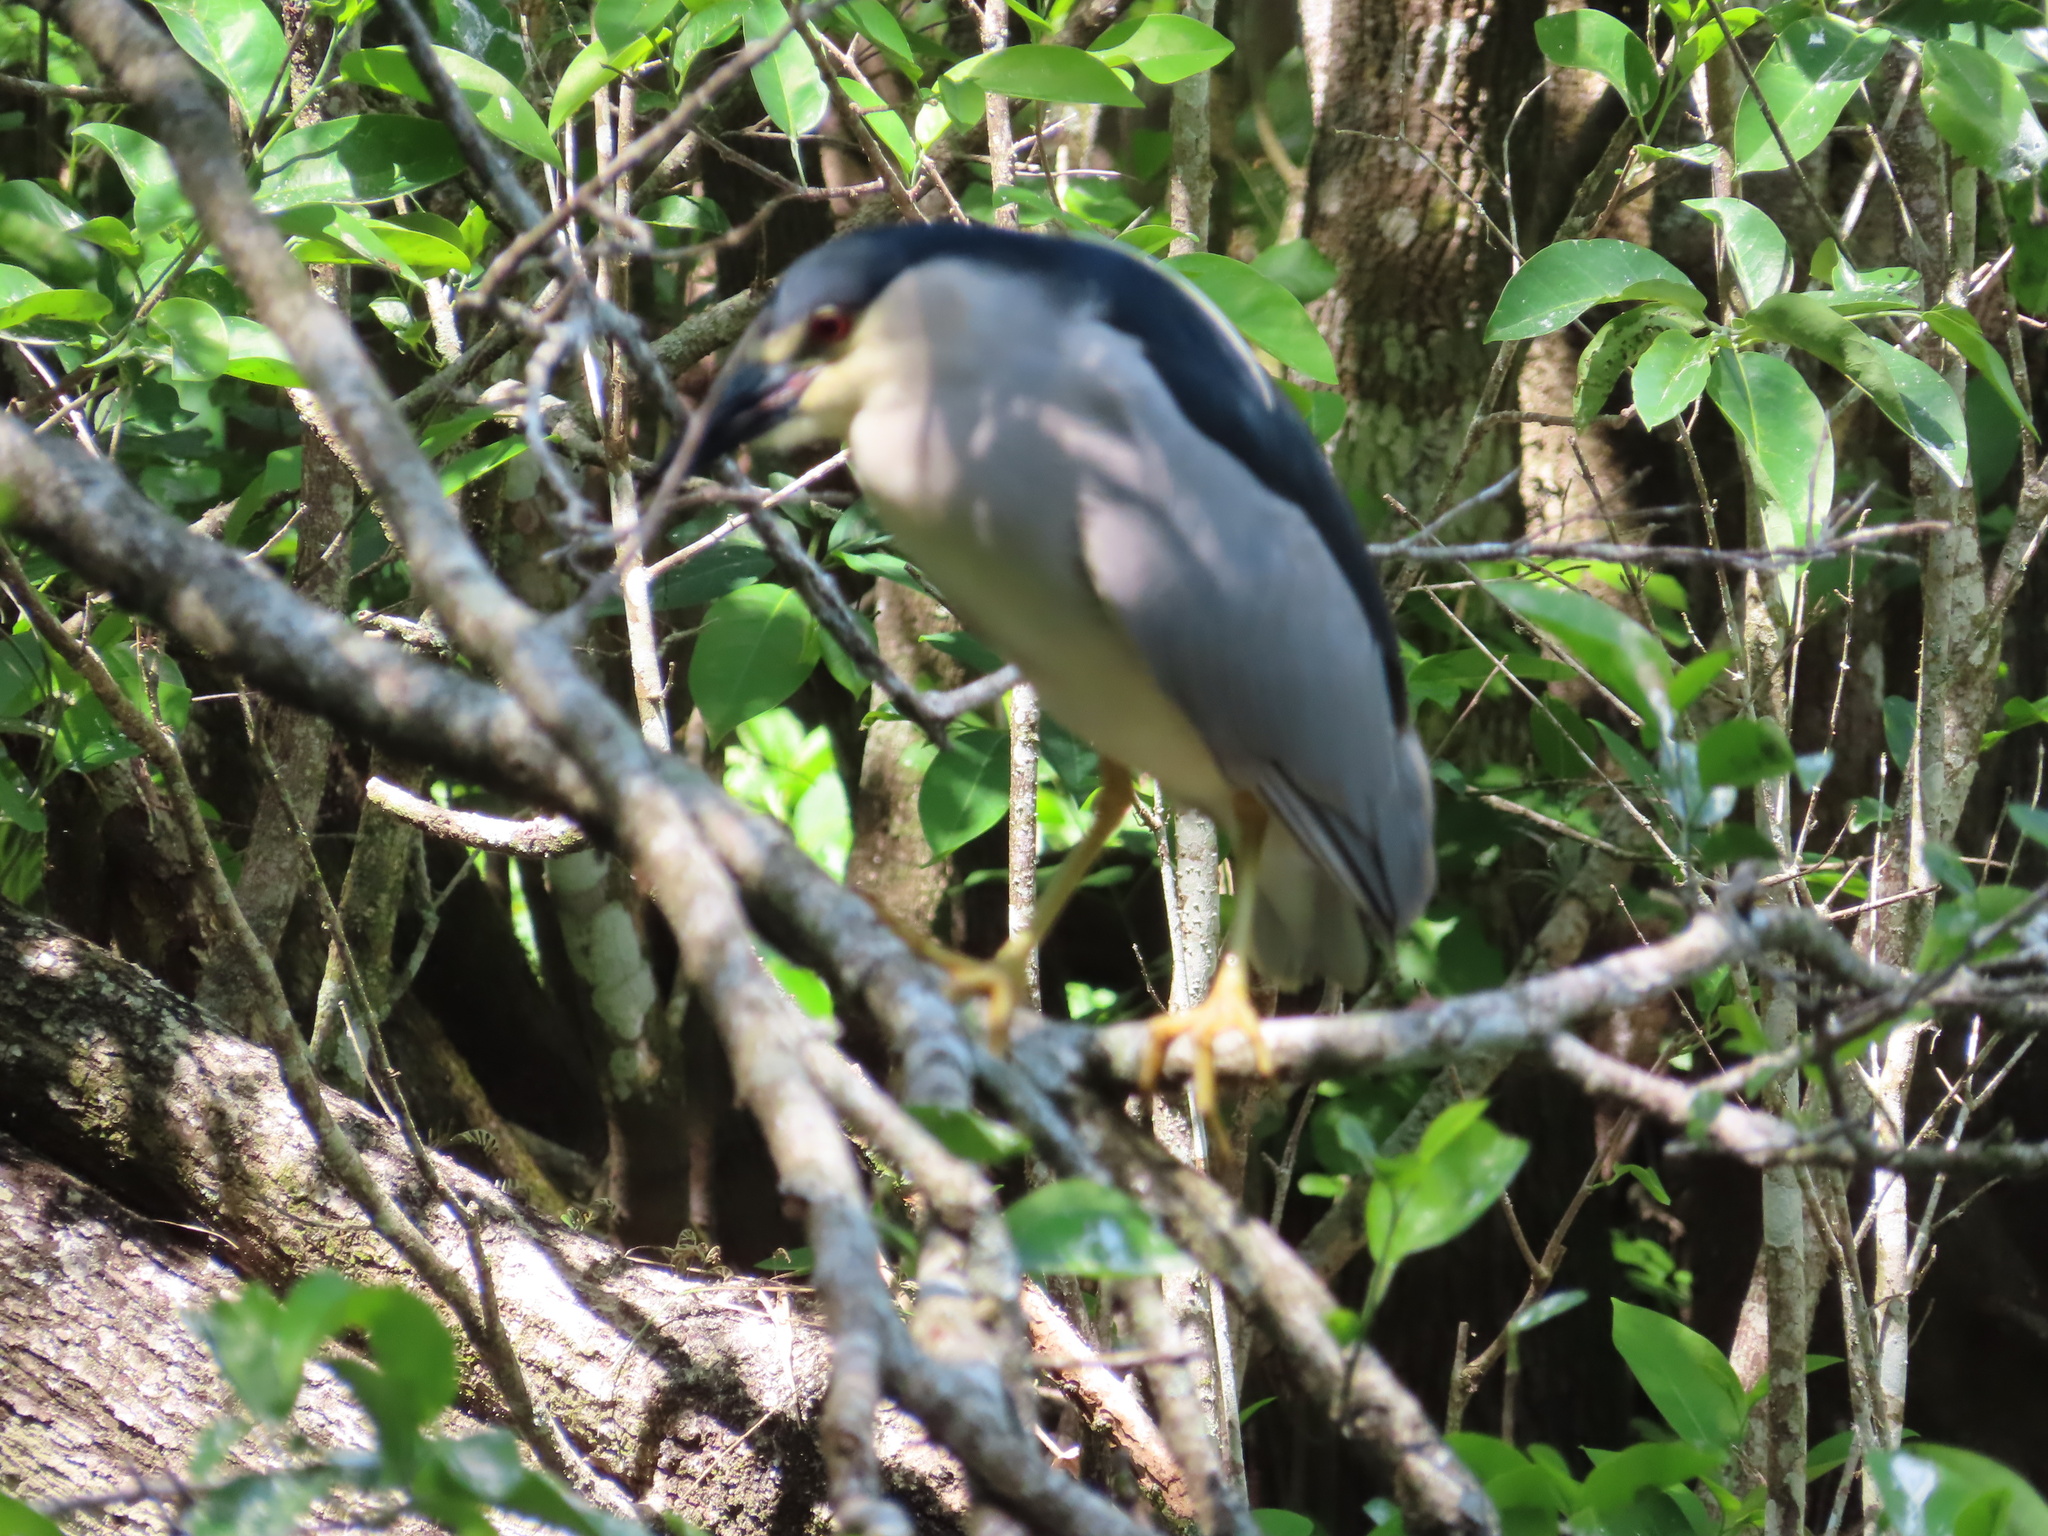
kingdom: Animalia
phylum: Chordata
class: Aves
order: Pelecaniformes
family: Ardeidae
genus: Nycticorax
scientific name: Nycticorax nycticorax
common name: Black-crowned night heron
